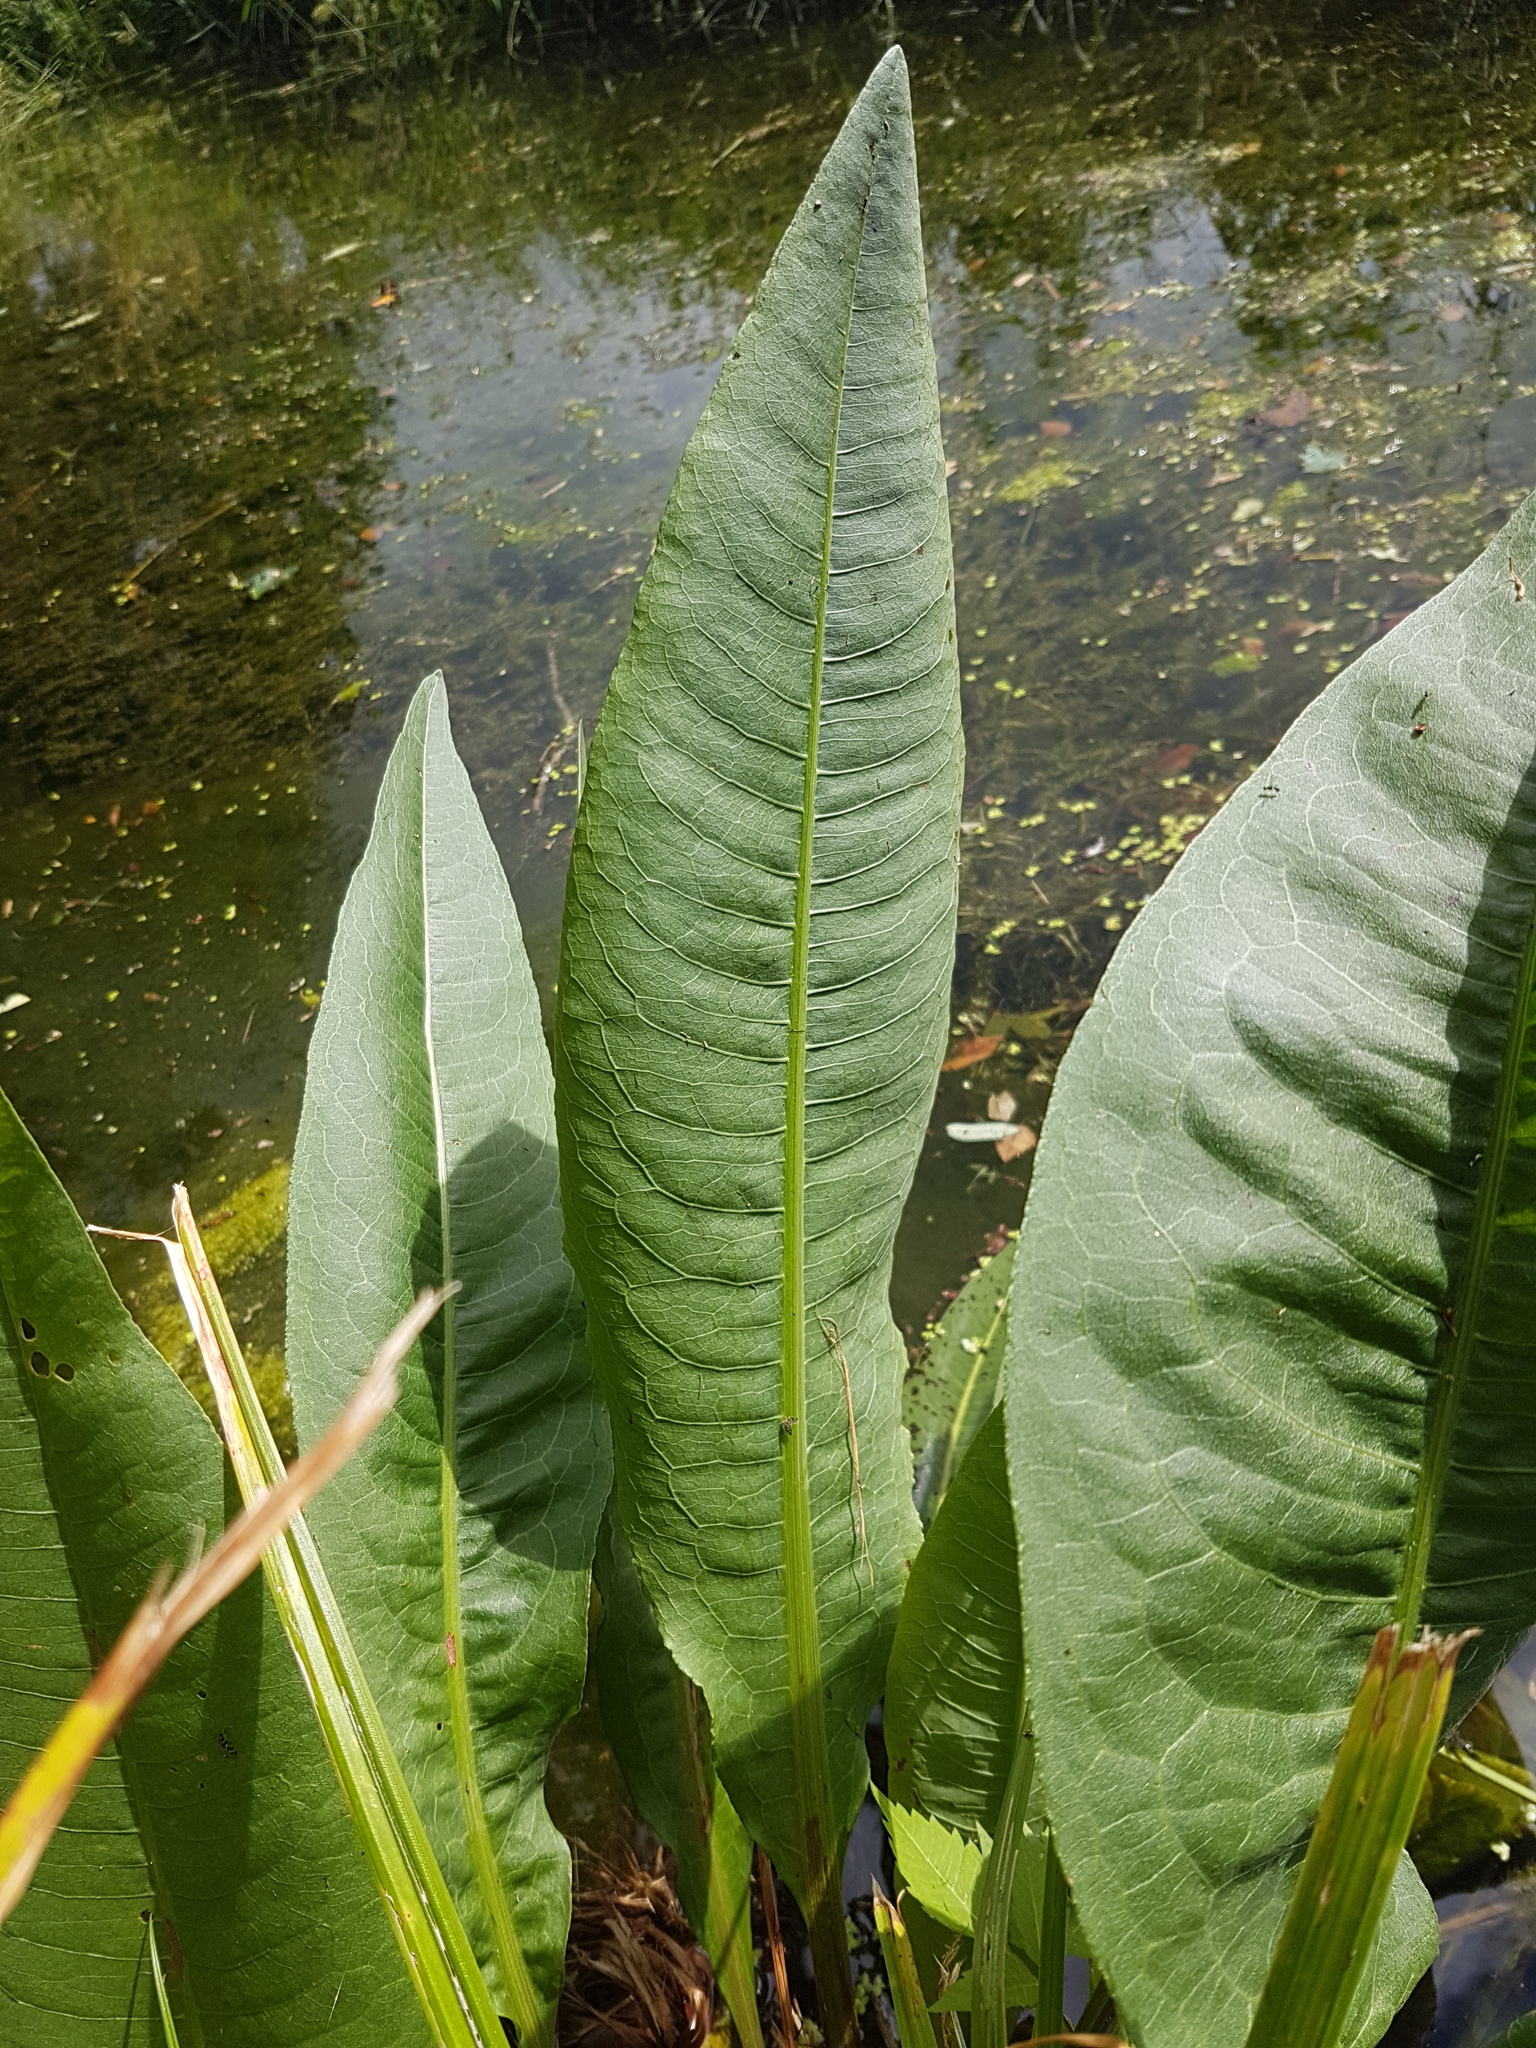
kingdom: Plantae
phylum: Tracheophyta
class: Magnoliopsida
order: Caryophyllales
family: Polygonaceae
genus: Rumex
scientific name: Rumex hydrolapathum
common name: Water dock
